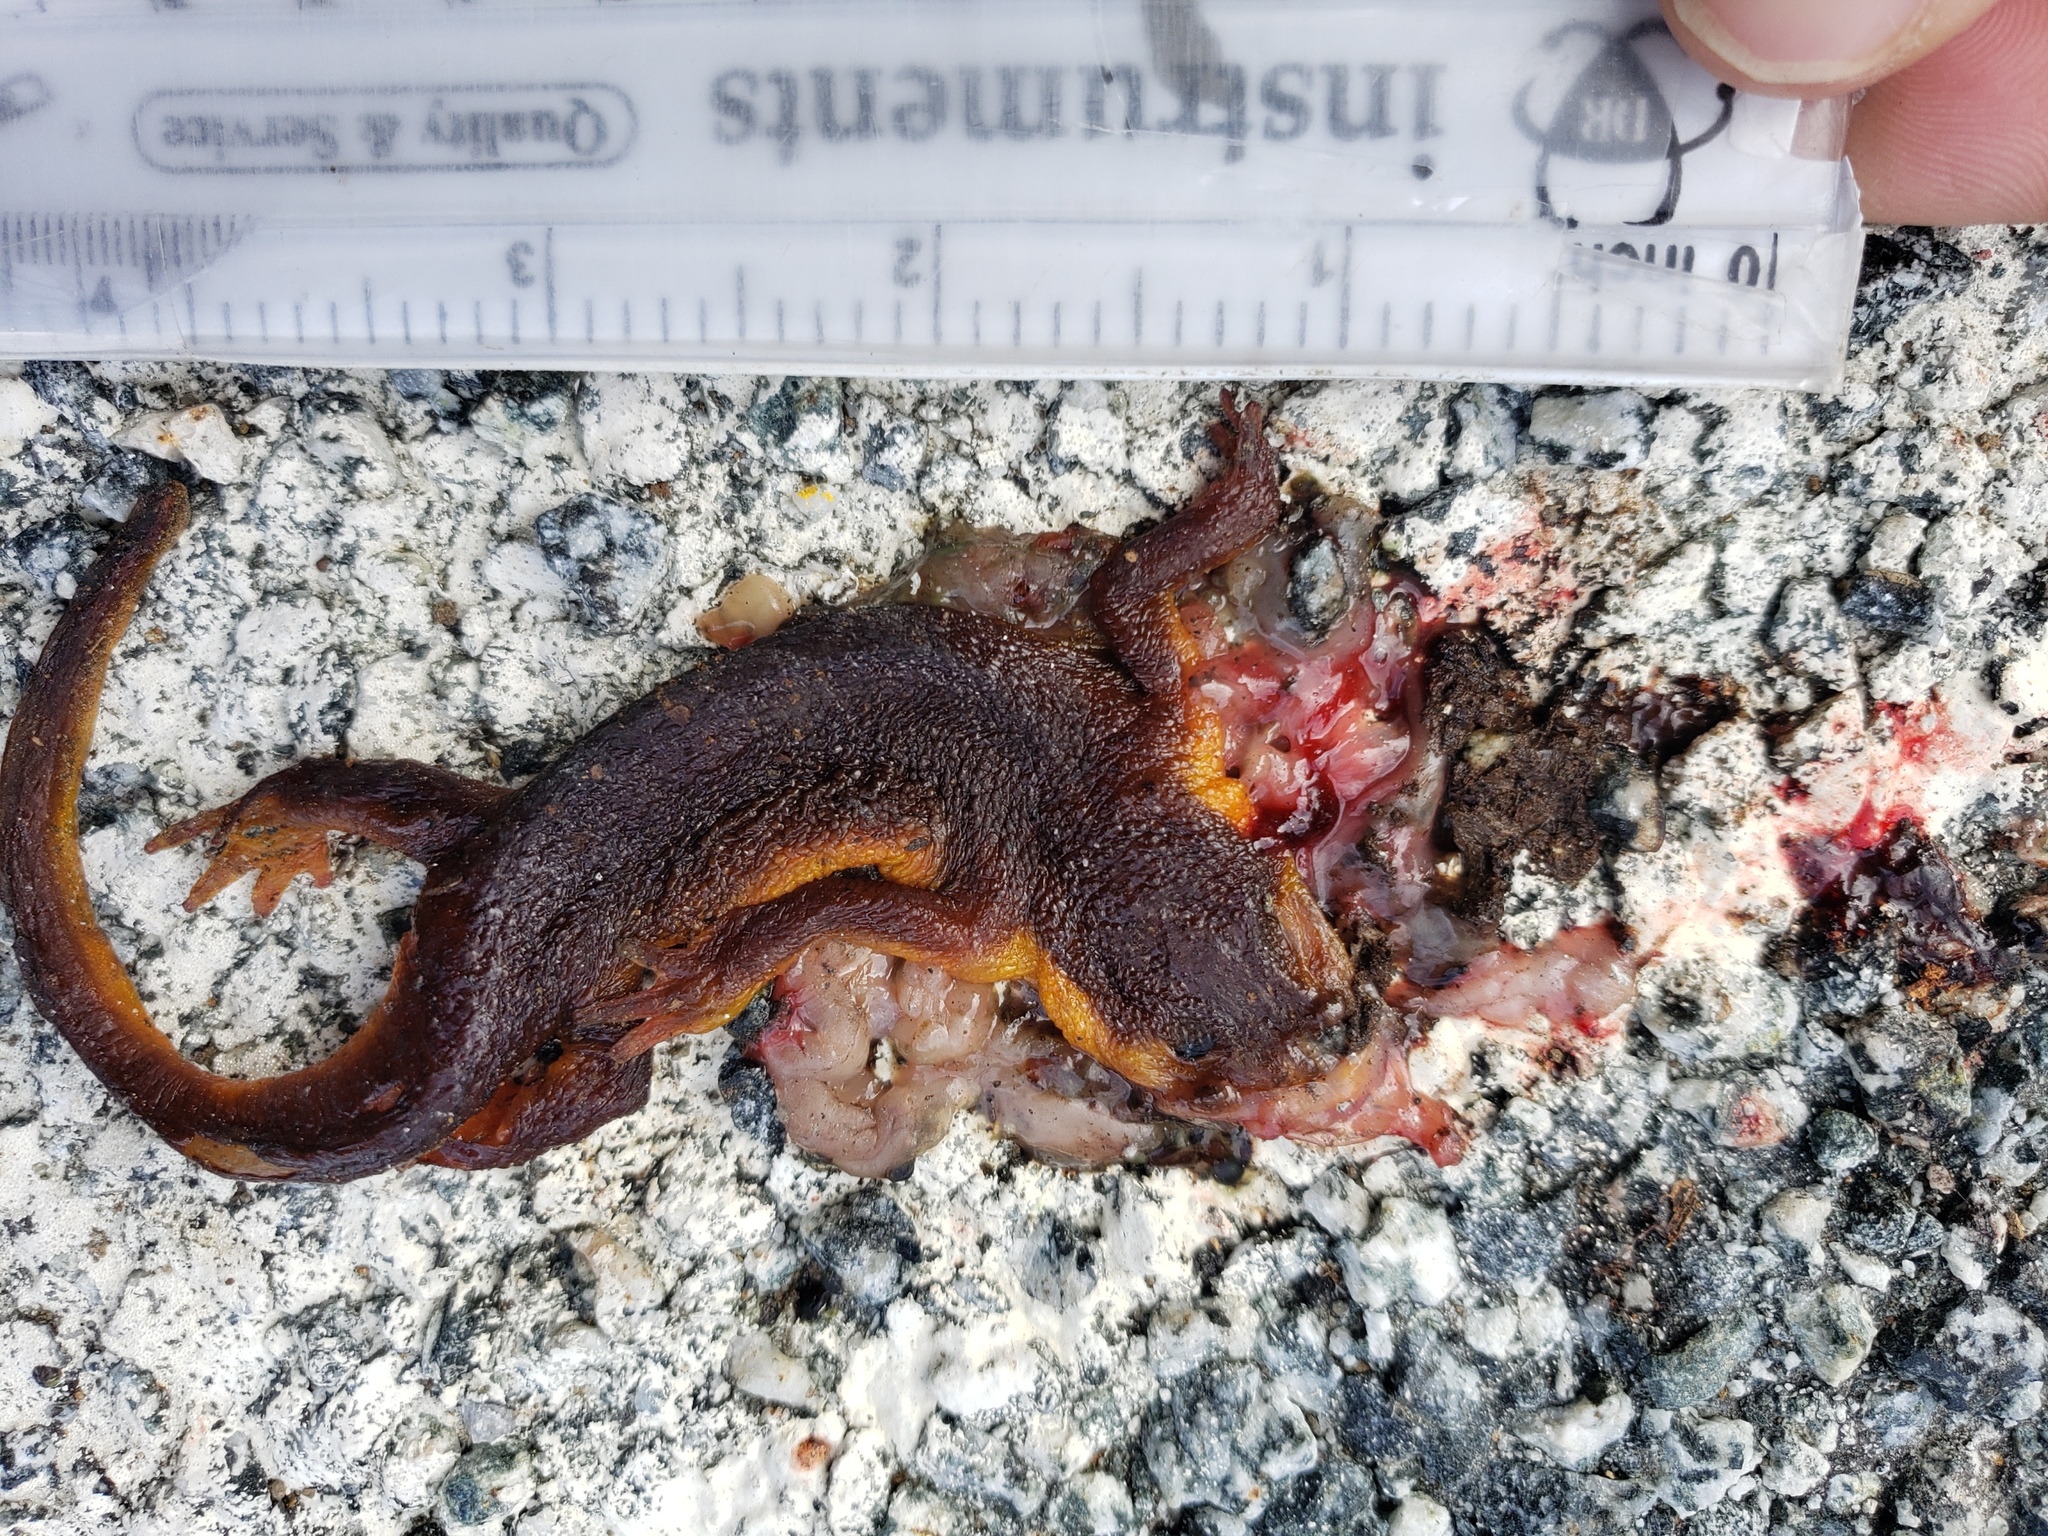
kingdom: Animalia
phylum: Chordata
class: Amphibia
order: Caudata
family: Salamandridae
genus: Taricha
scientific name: Taricha
